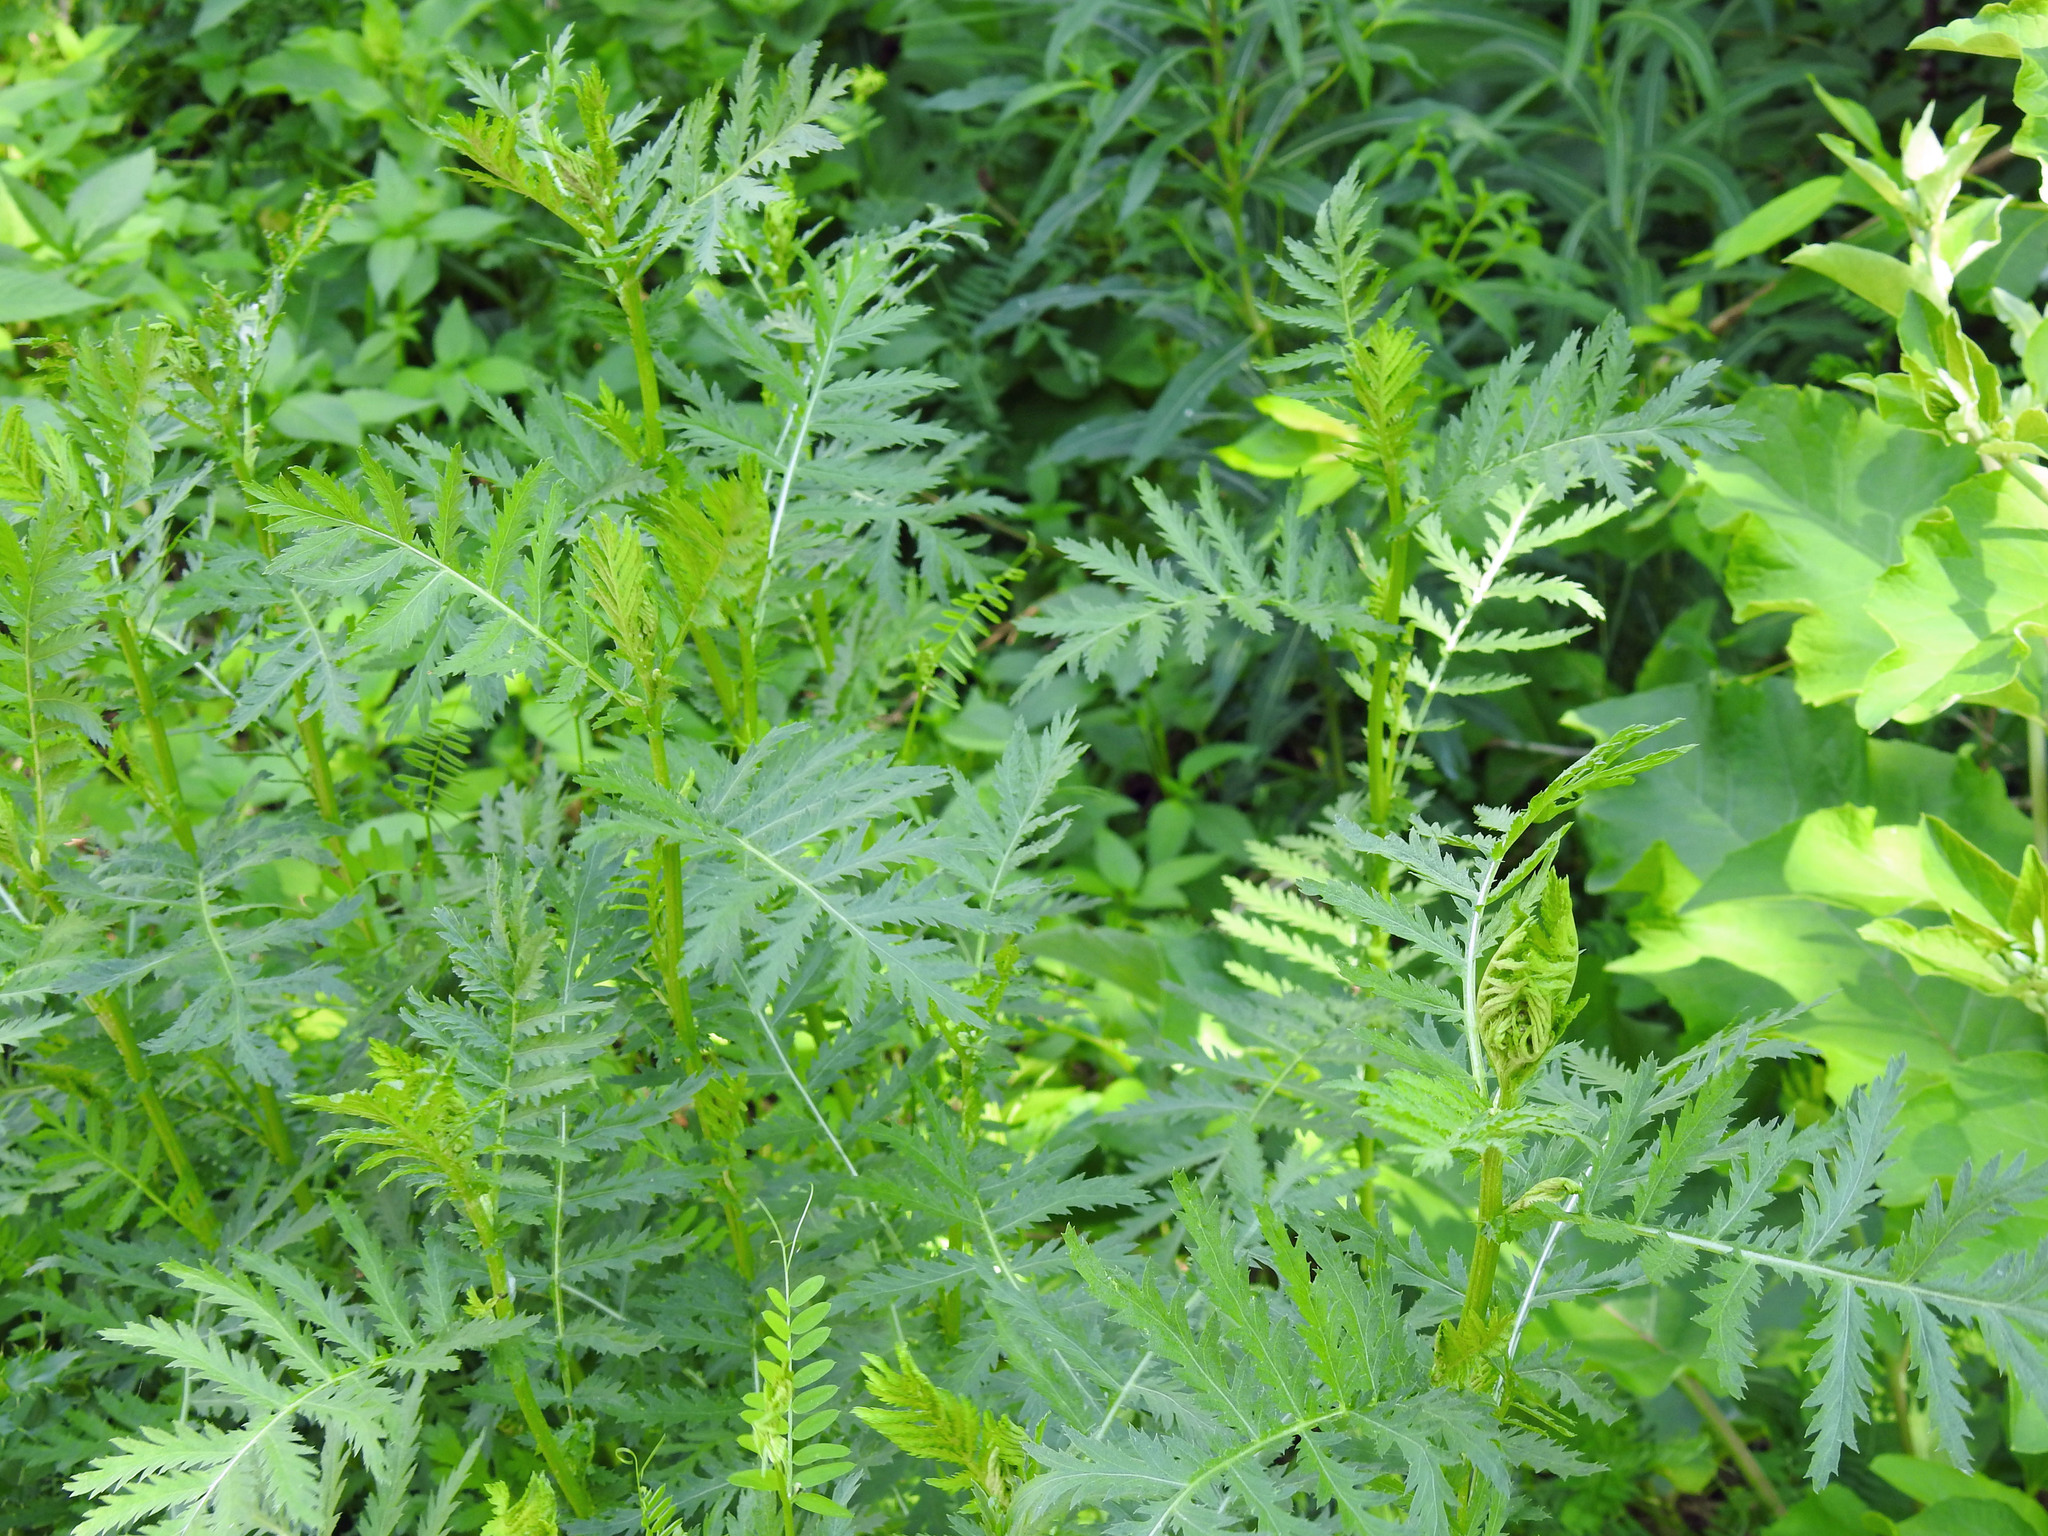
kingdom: Plantae
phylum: Tracheophyta
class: Magnoliopsida
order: Asterales
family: Asteraceae
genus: Tanacetum
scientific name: Tanacetum vulgare
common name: Common tansy
